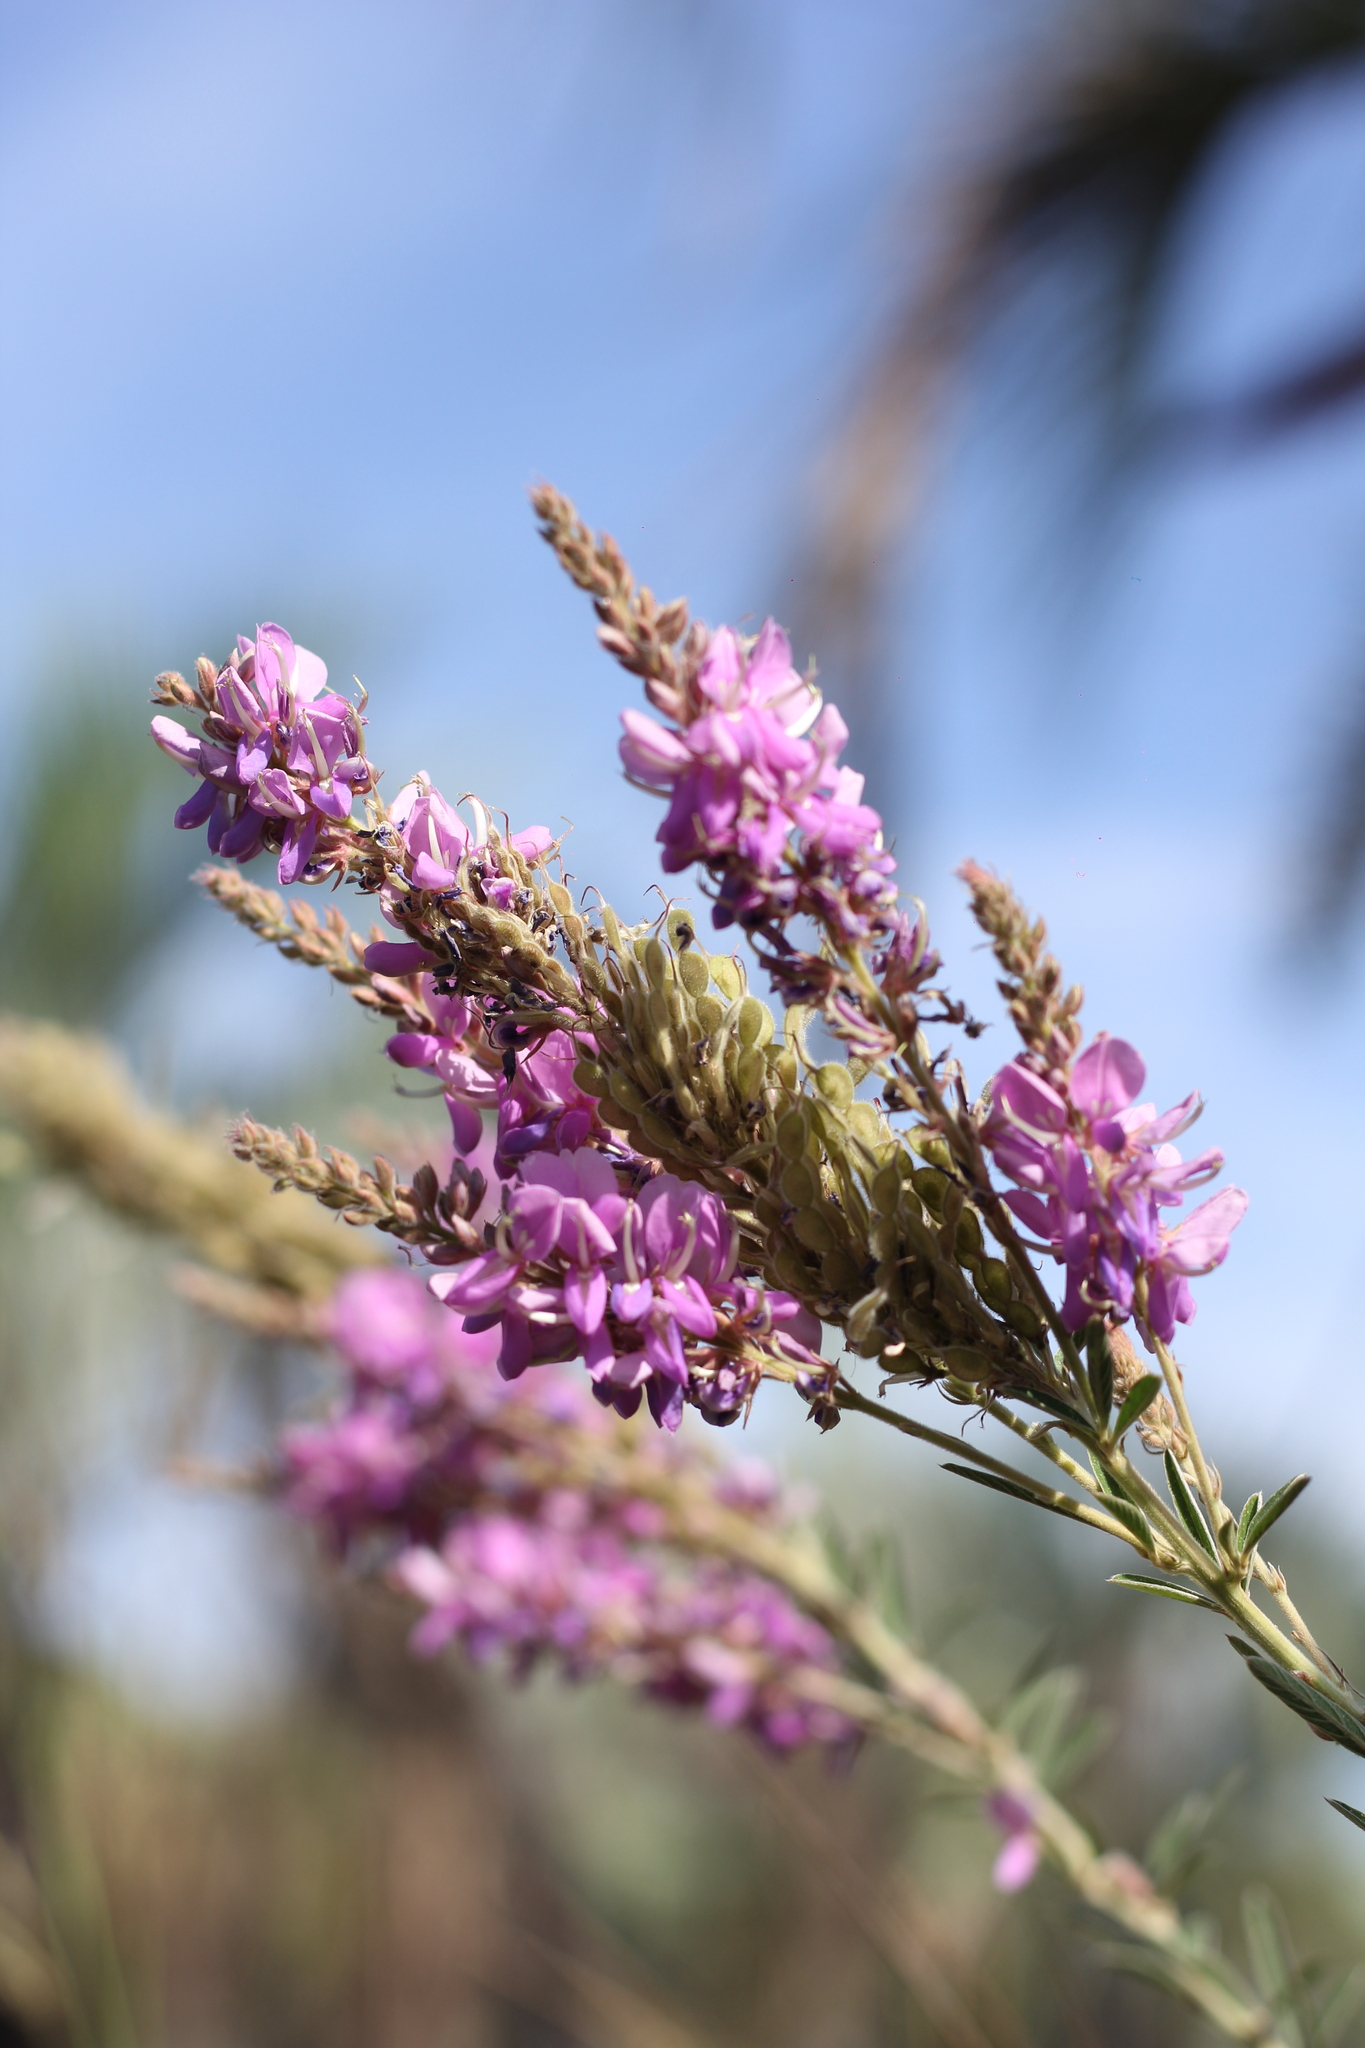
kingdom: Plantae
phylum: Tracheophyta
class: Magnoliopsida
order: Fabales
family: Fabaceae
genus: Desmodium
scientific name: Desmodium cuneatum
